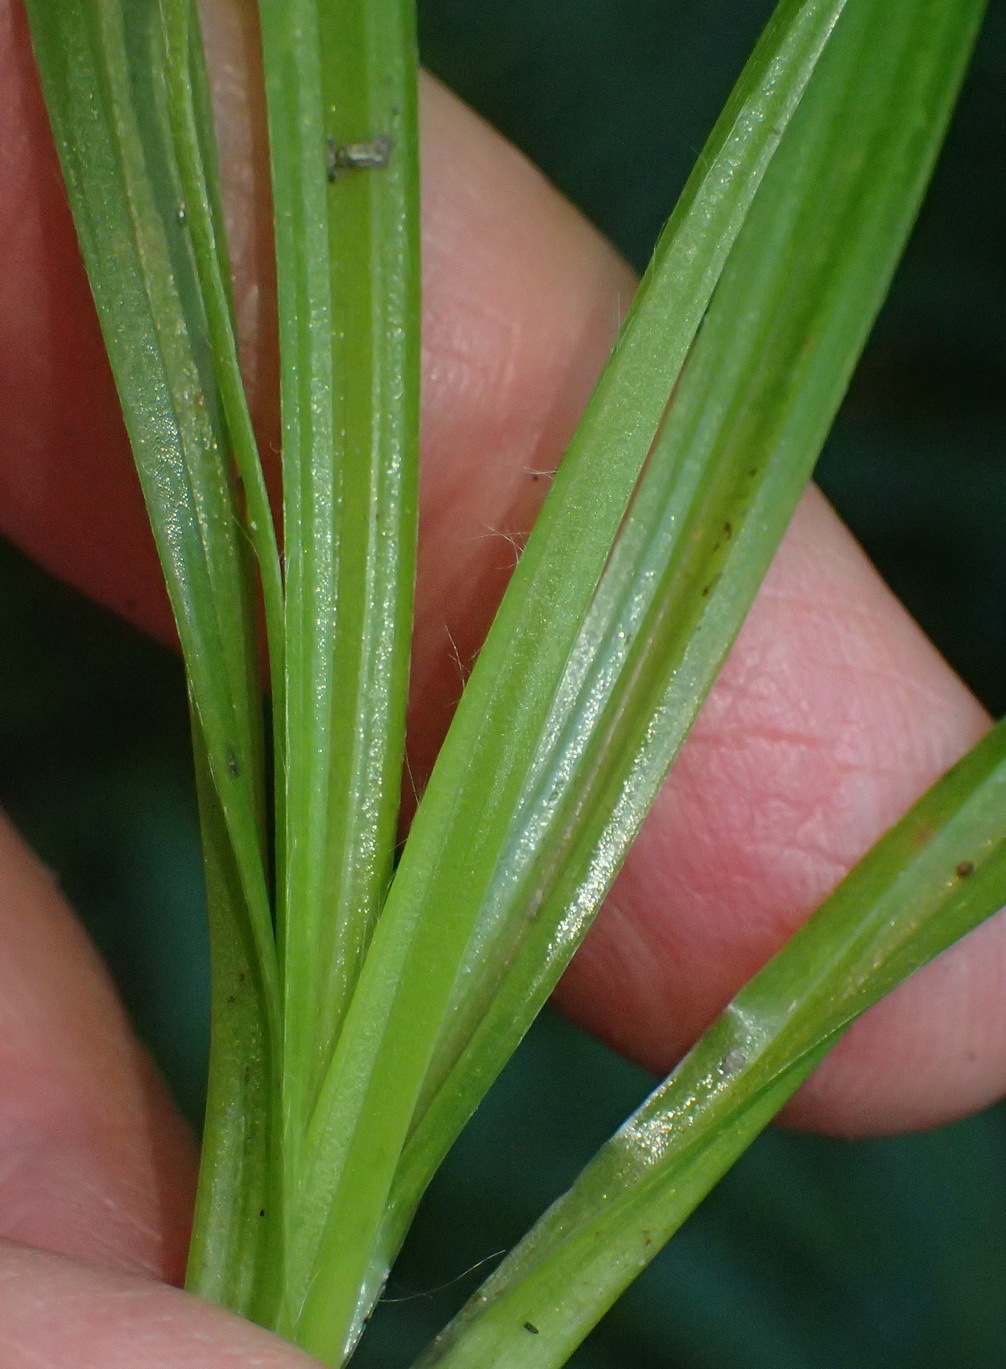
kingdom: Plantae
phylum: Tracheophyta
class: Liliopsida
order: Asparagales
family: Hypoxidaceae
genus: Hypoxis
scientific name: Hypoxis angustifolia
